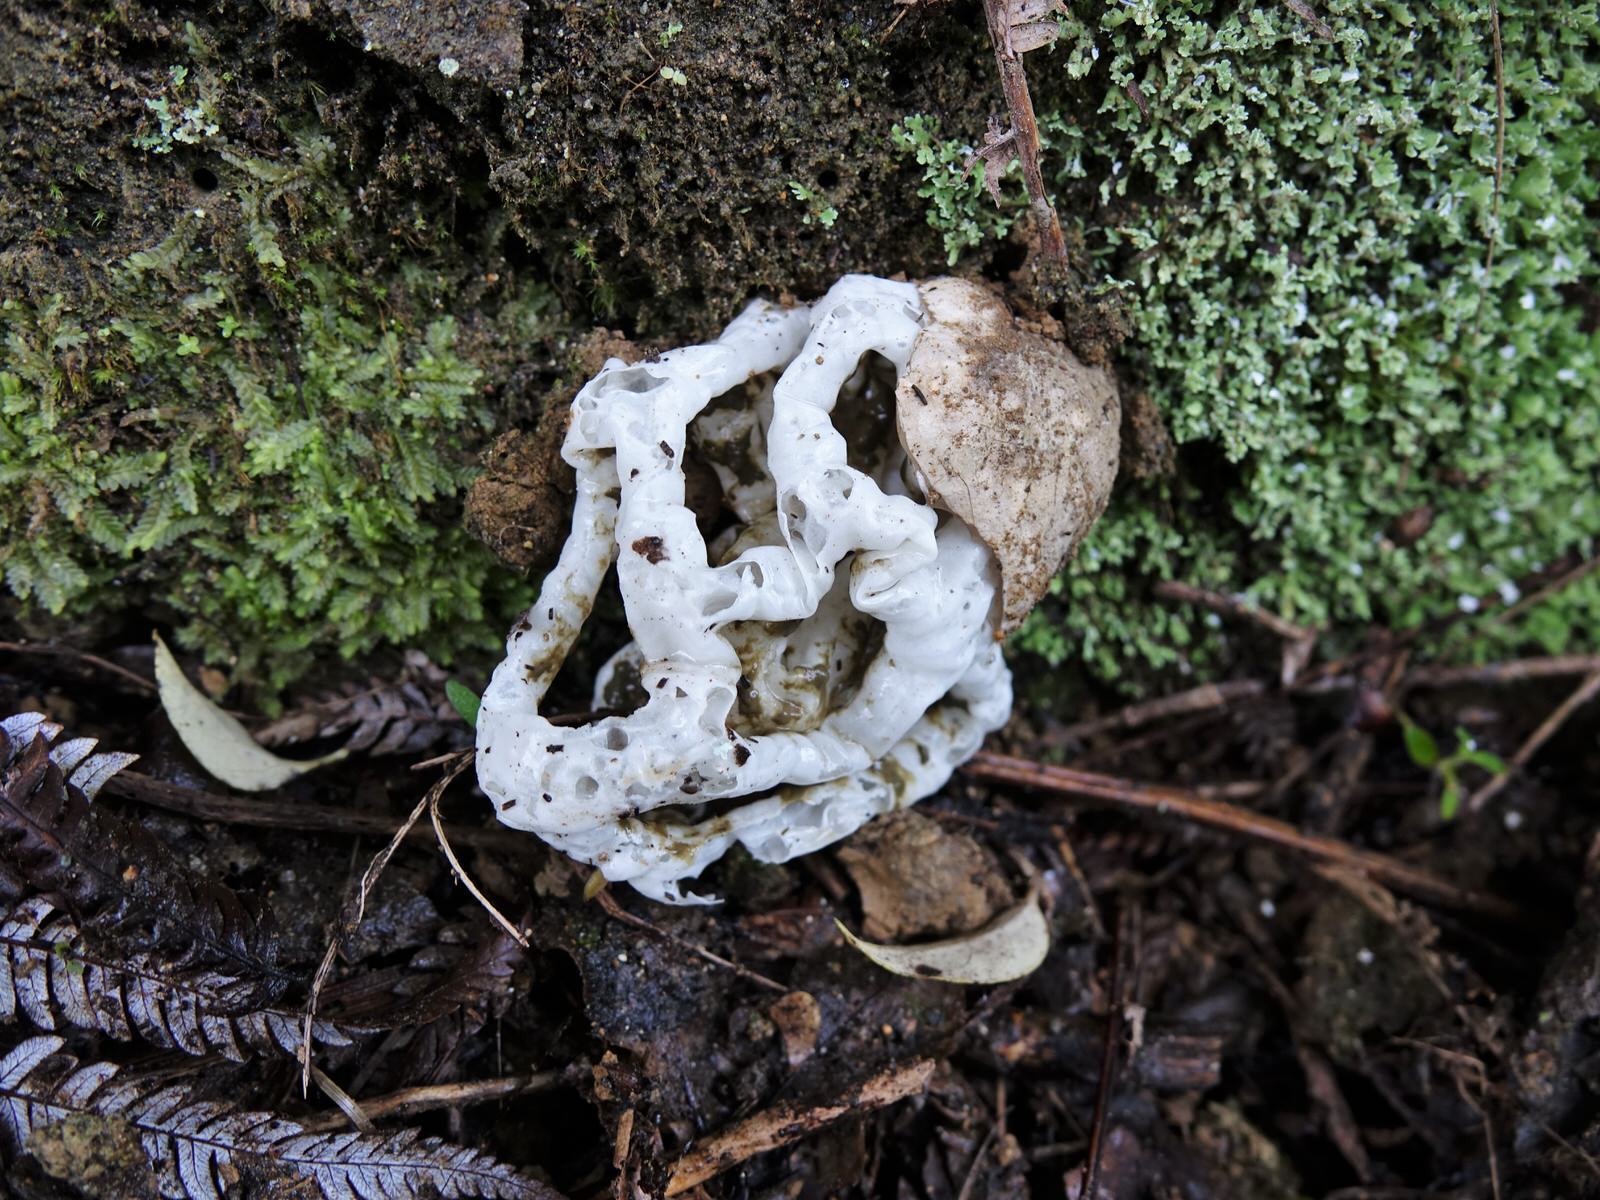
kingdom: Fungi
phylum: Basidiomycota
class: Agaricomycetes
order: Phallales
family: Phallaceae
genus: Ileodictyon
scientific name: Ileodictyon cibarium
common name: Basket fungus
